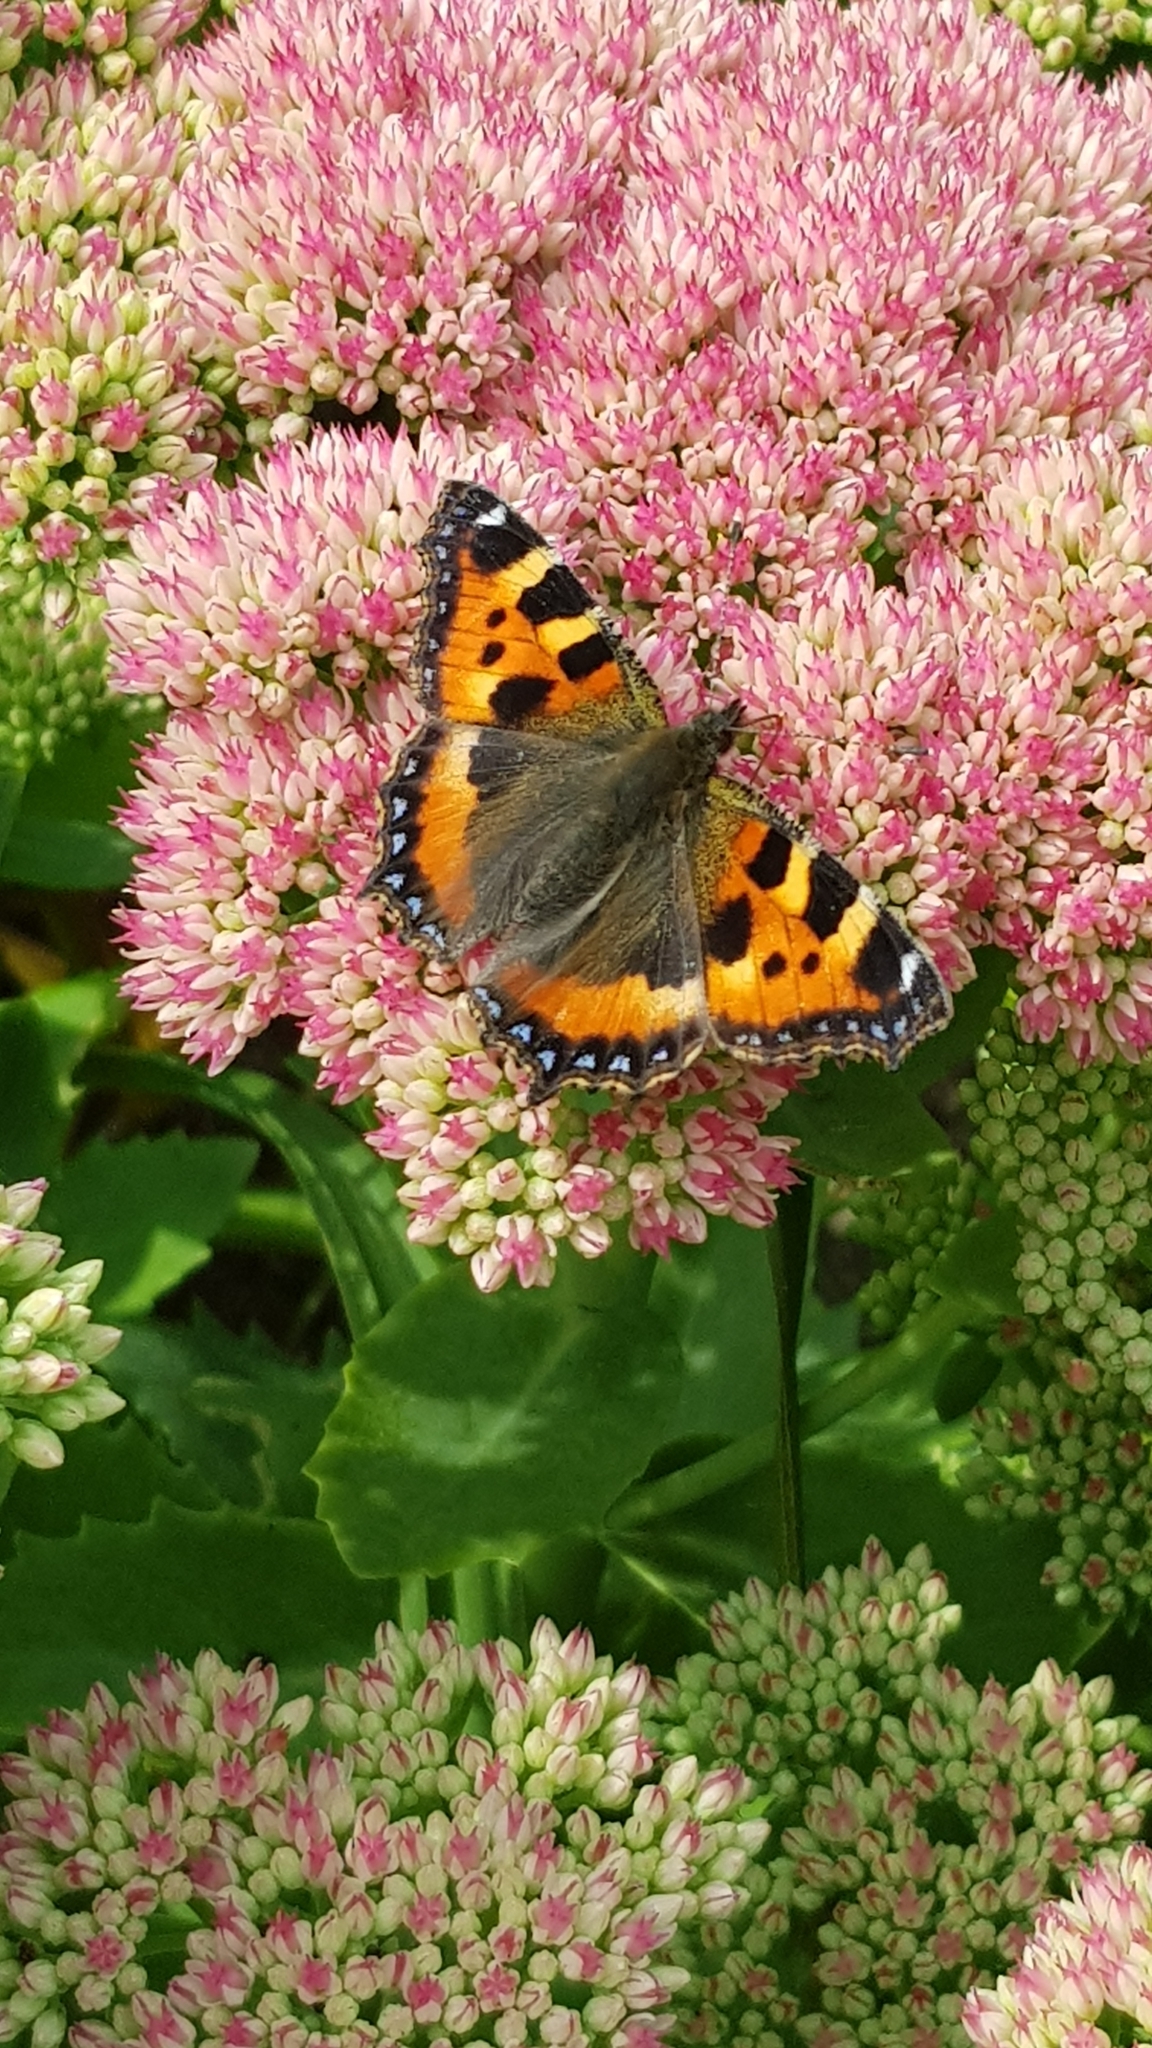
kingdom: Animalia
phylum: Arthropoda
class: Insecta
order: Lepidoptera
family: Nymphalidae
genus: Aglais
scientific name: Aglais urticae
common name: Small tortoiseshell
